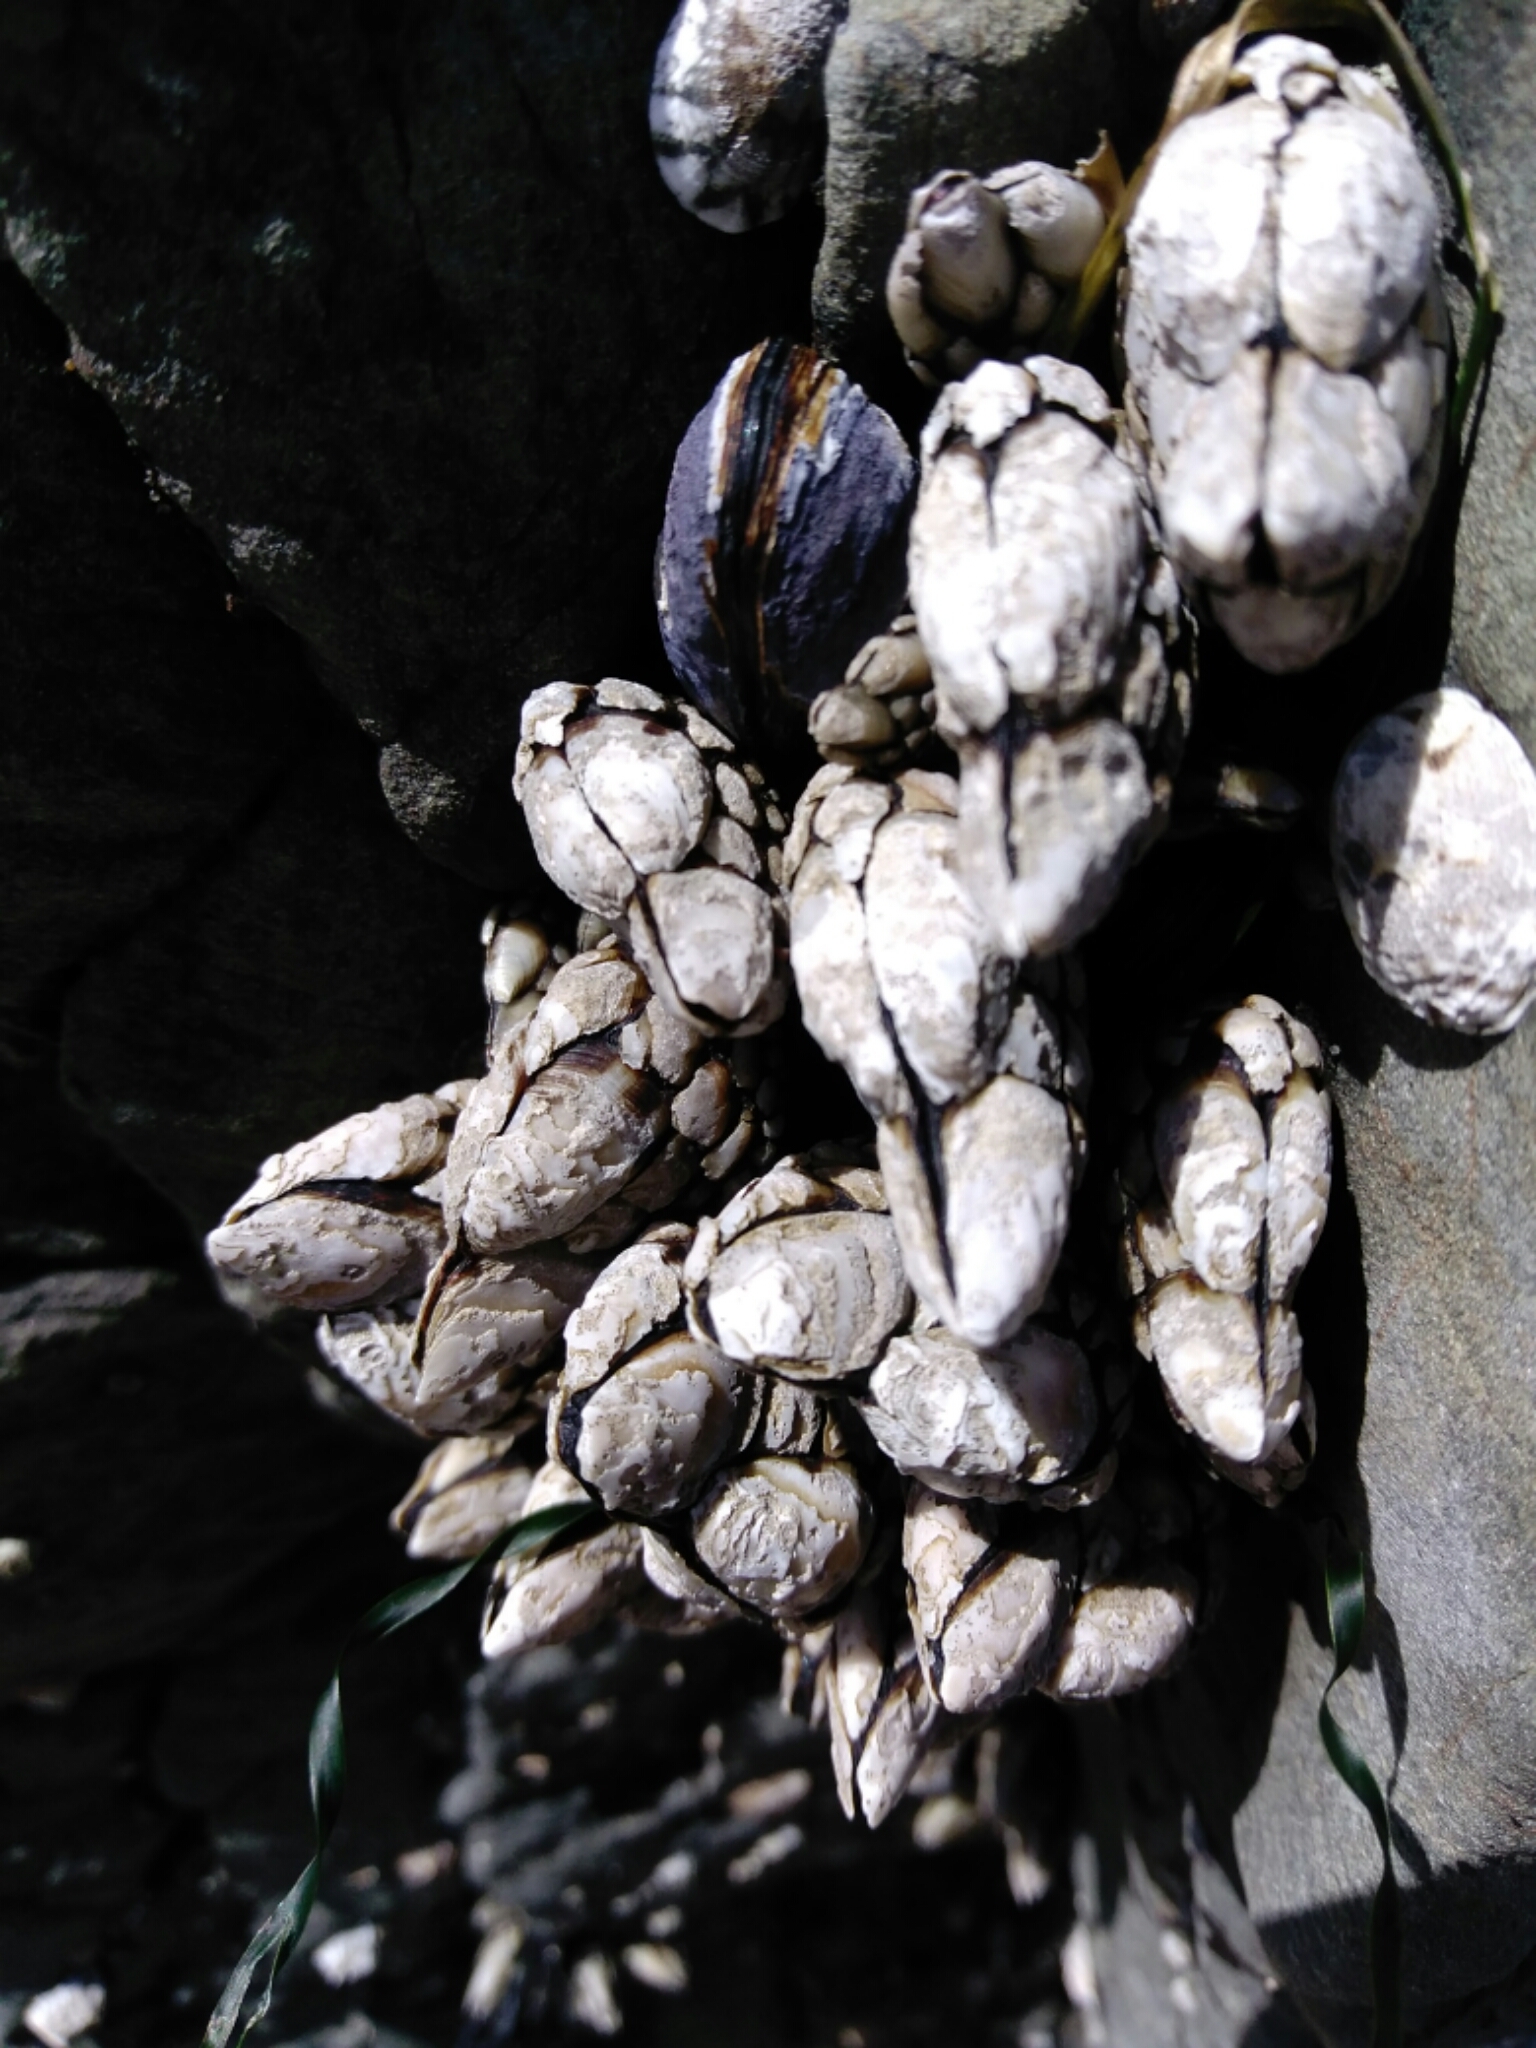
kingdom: Animalia
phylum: Arthropoda
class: Maxillopoda
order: Pedunculata
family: Pollicipedidae
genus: Pollicipes
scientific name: Pollicipes polymerus
